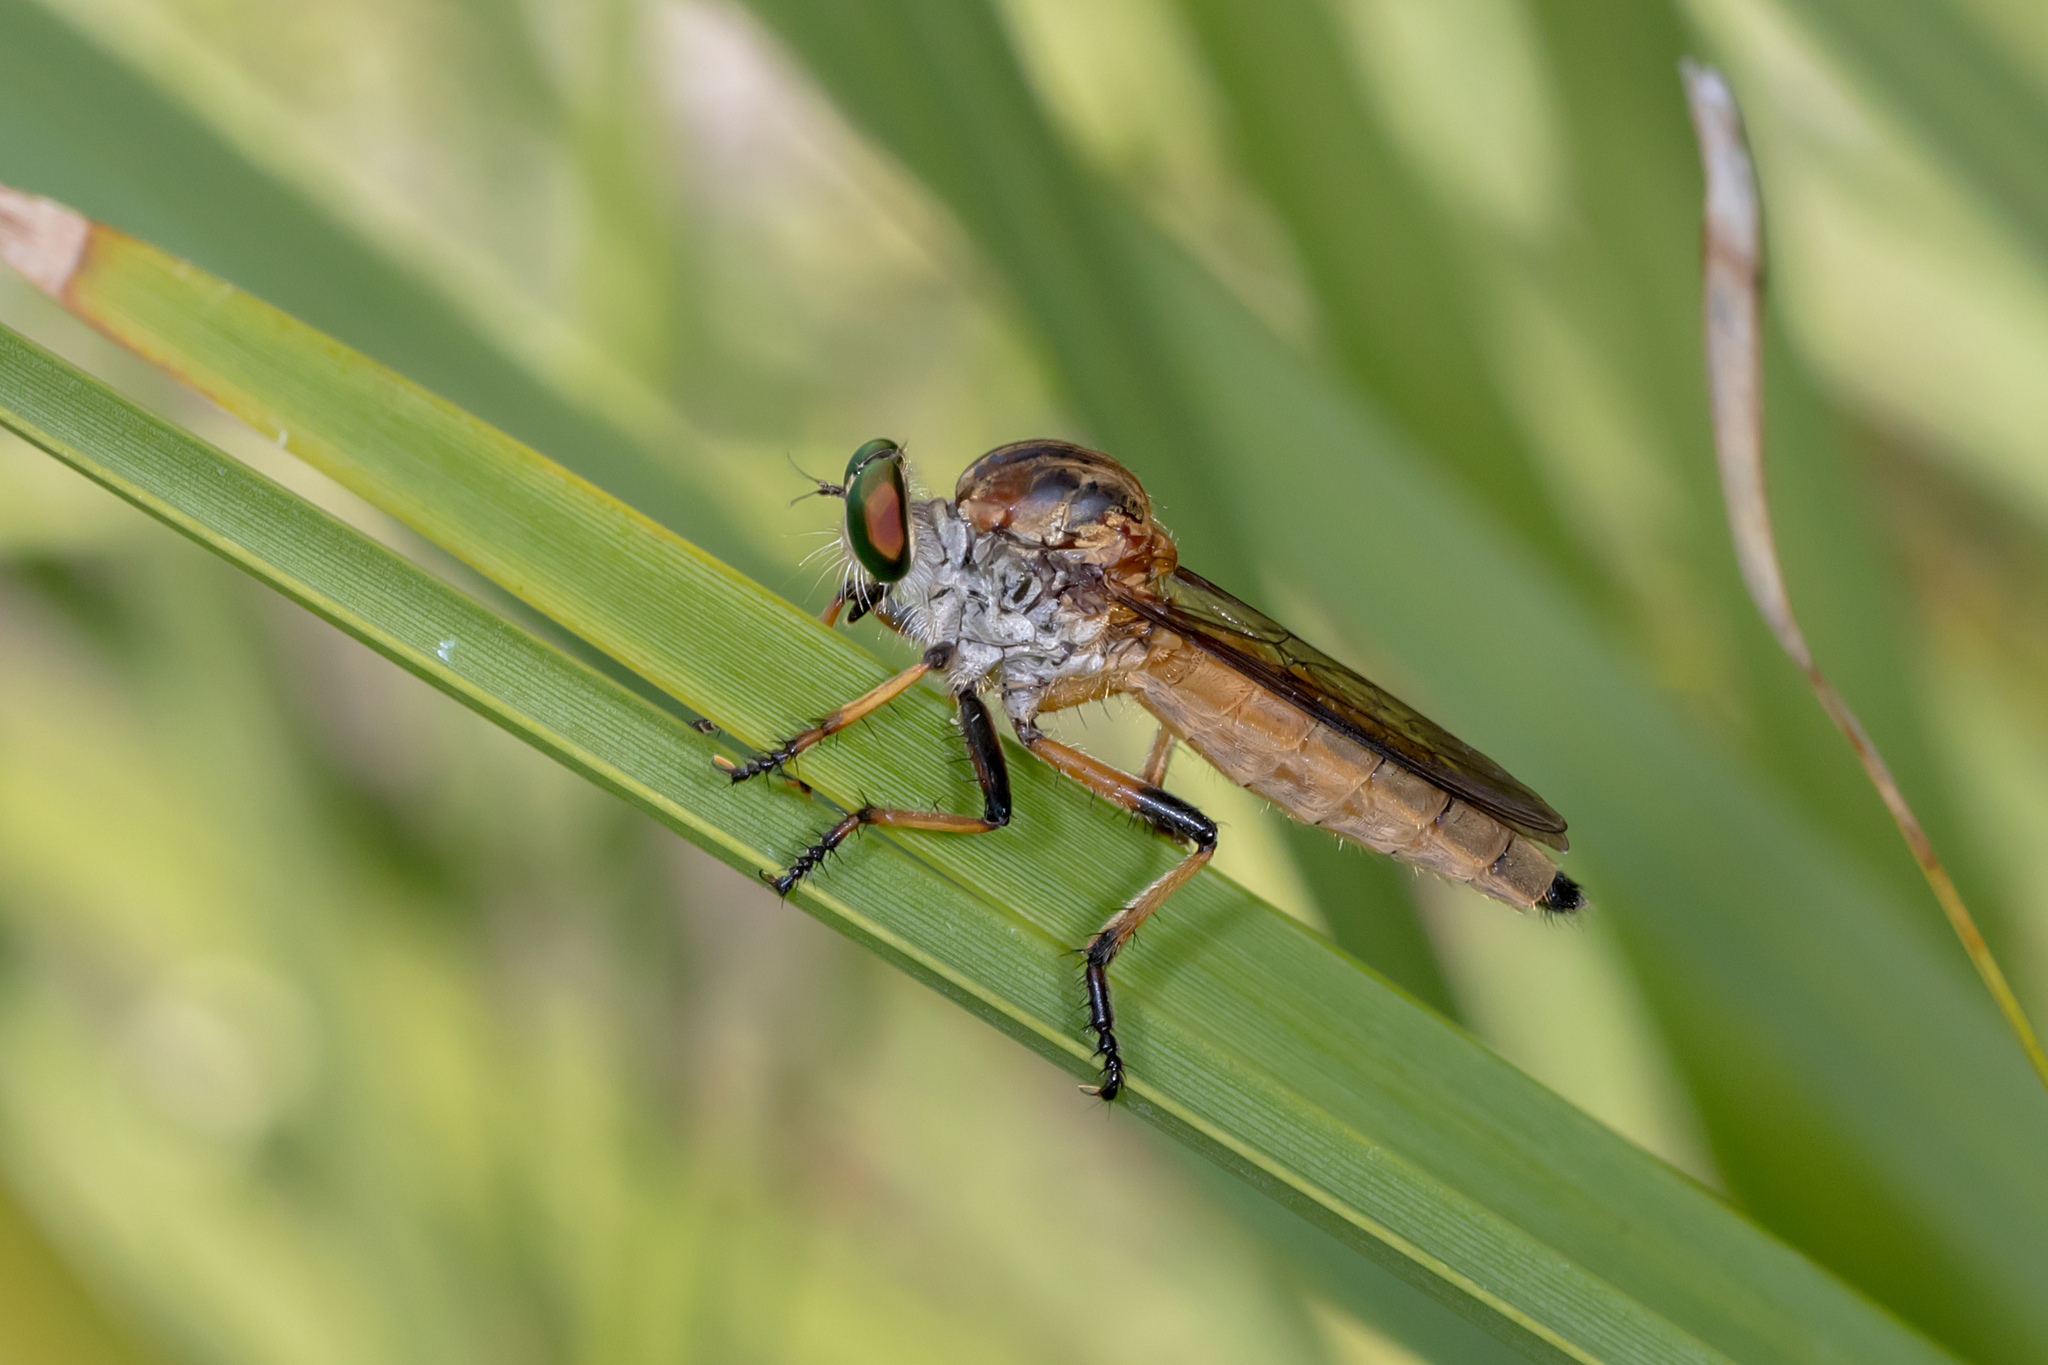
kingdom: Animalia
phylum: Arthropoda
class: Insecta
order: Diptera
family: Asilidae
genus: Ommatius
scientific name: Ommatius mackayi
